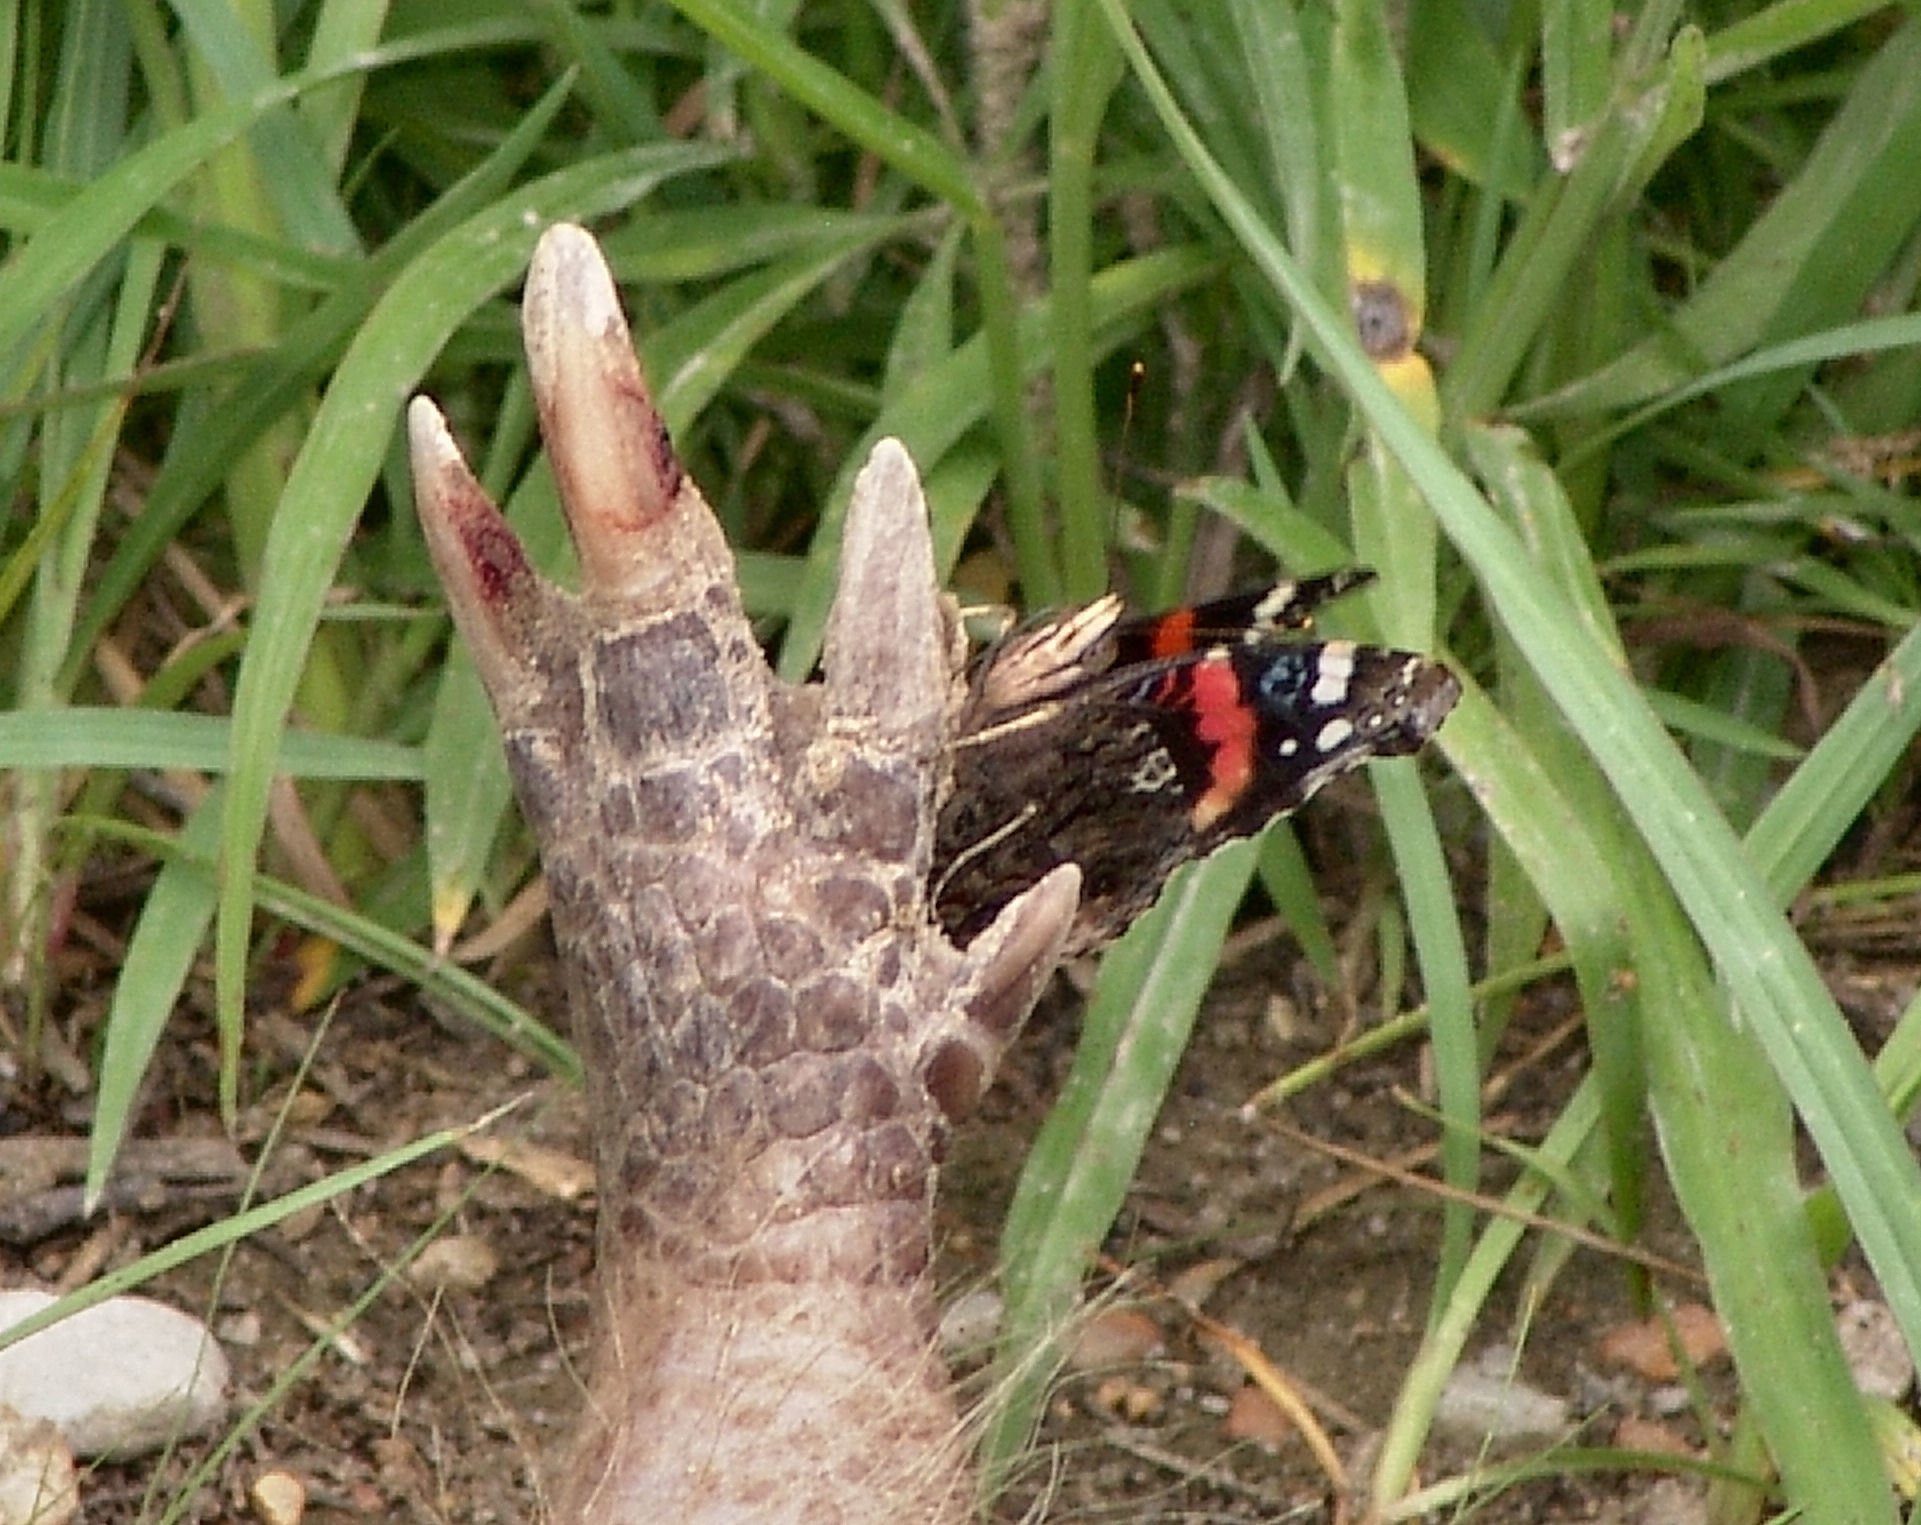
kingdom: Animalia
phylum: Arthropoda
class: Insecta
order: Lepidoptera
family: Nymphalidae
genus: Vanessa
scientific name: Vanessa atalanta
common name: Red admiral
